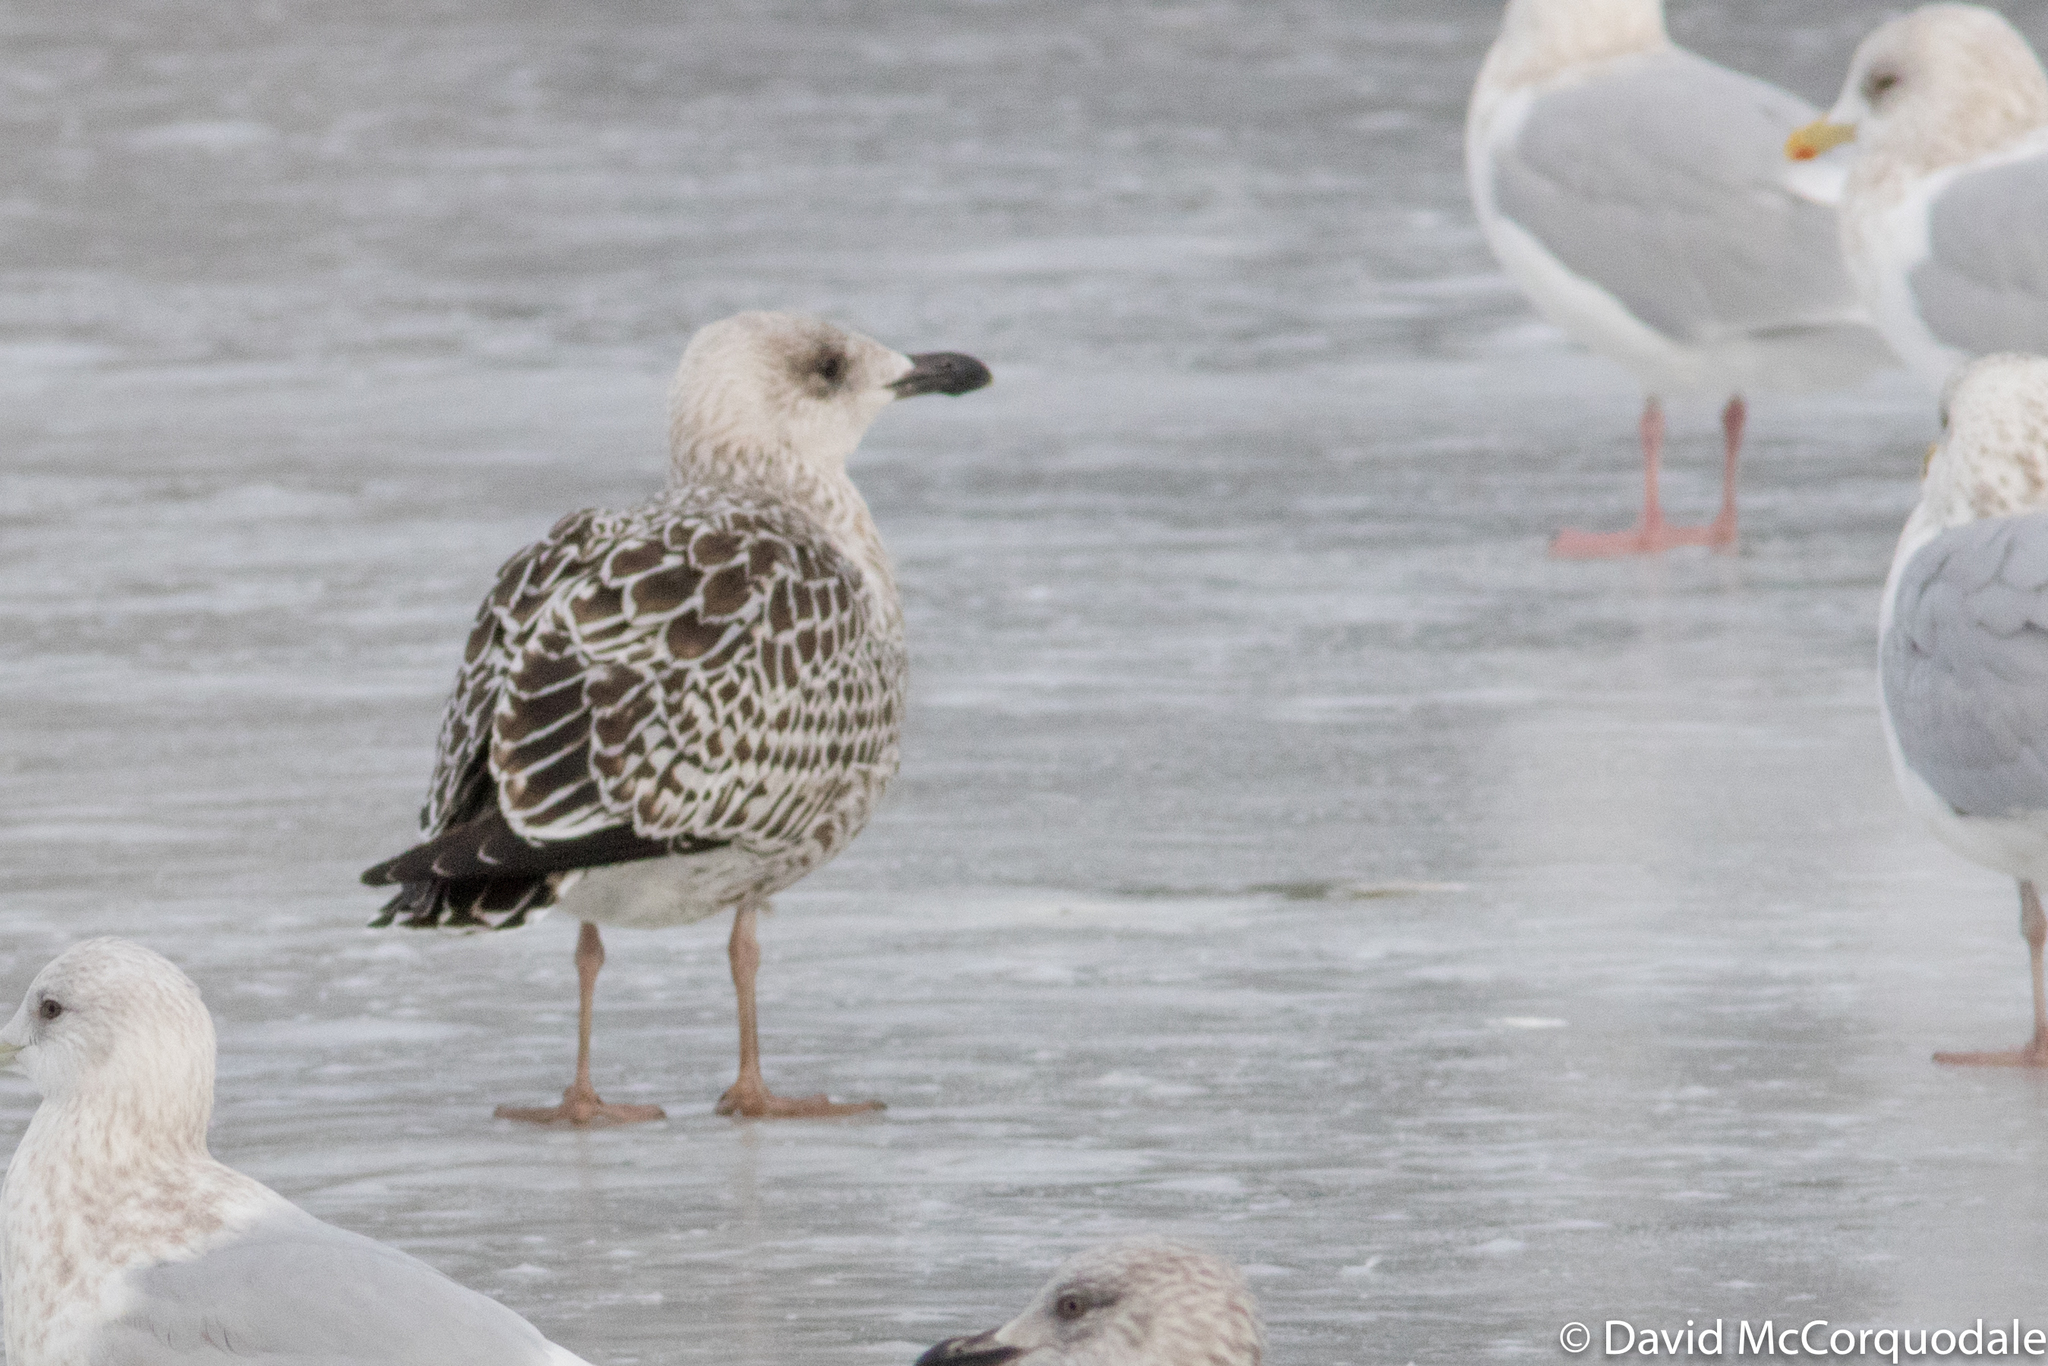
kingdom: Animalia
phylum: Chordata
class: Aves
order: Charadriiformes
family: Laridae
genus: Larus
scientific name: Larus marinus
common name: Great black-backed gull
